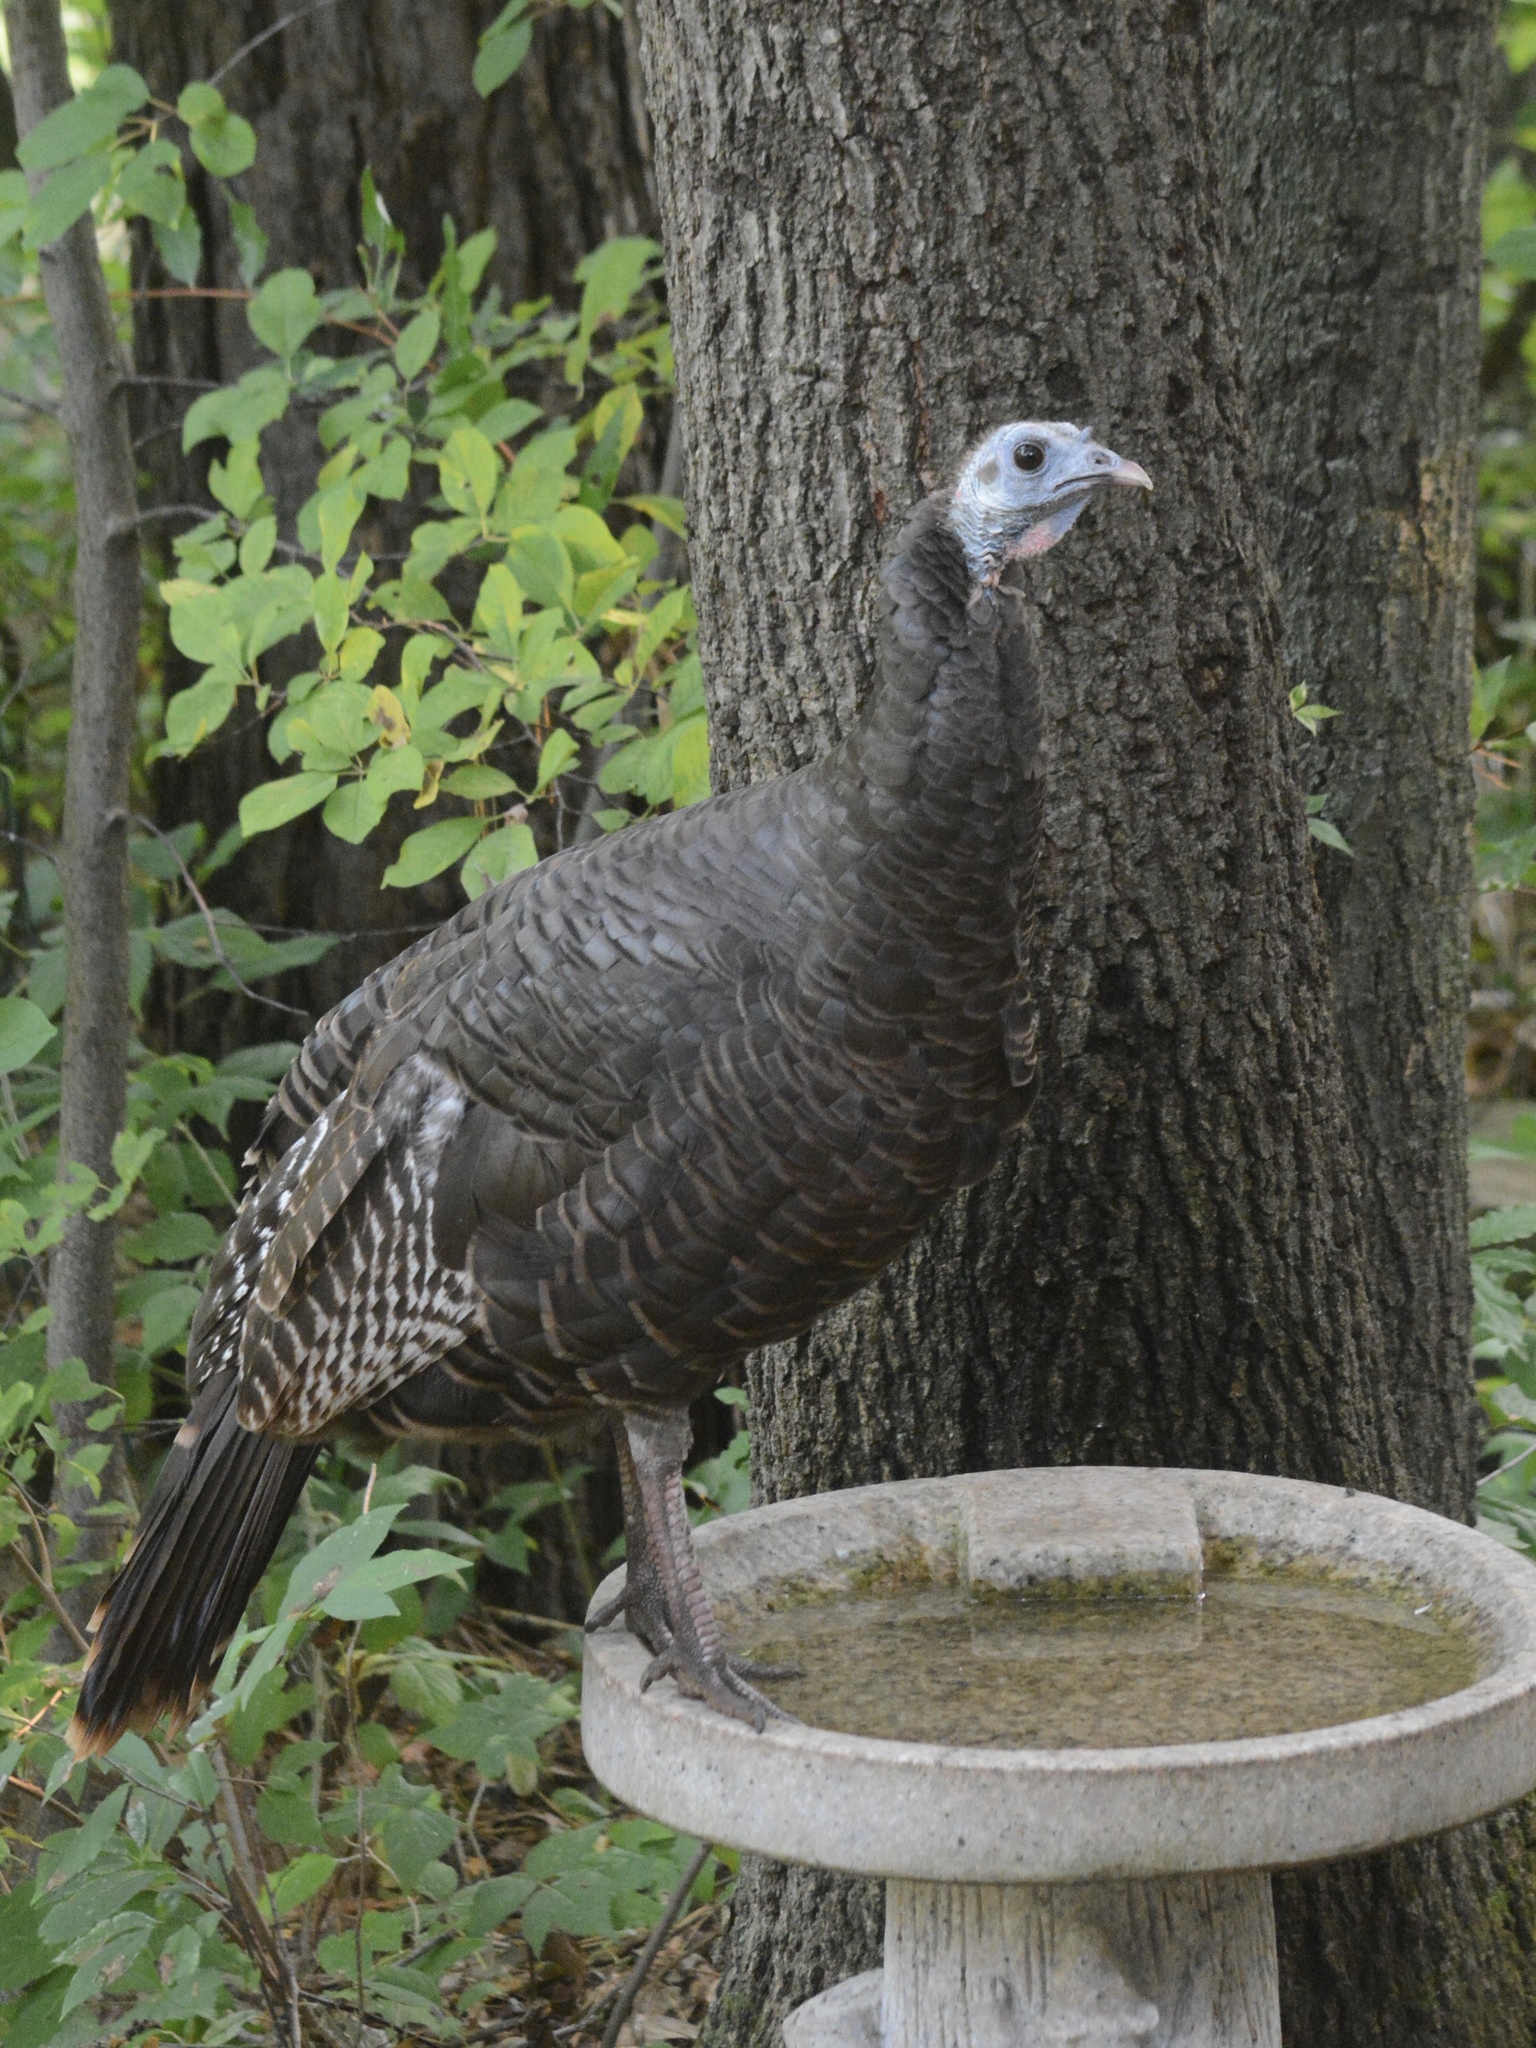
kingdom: Animalia
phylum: Chordata
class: Aves
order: Galliformes
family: Phasianidae
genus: Meleagris
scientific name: Meleagris gallopavo
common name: Wild turkey
